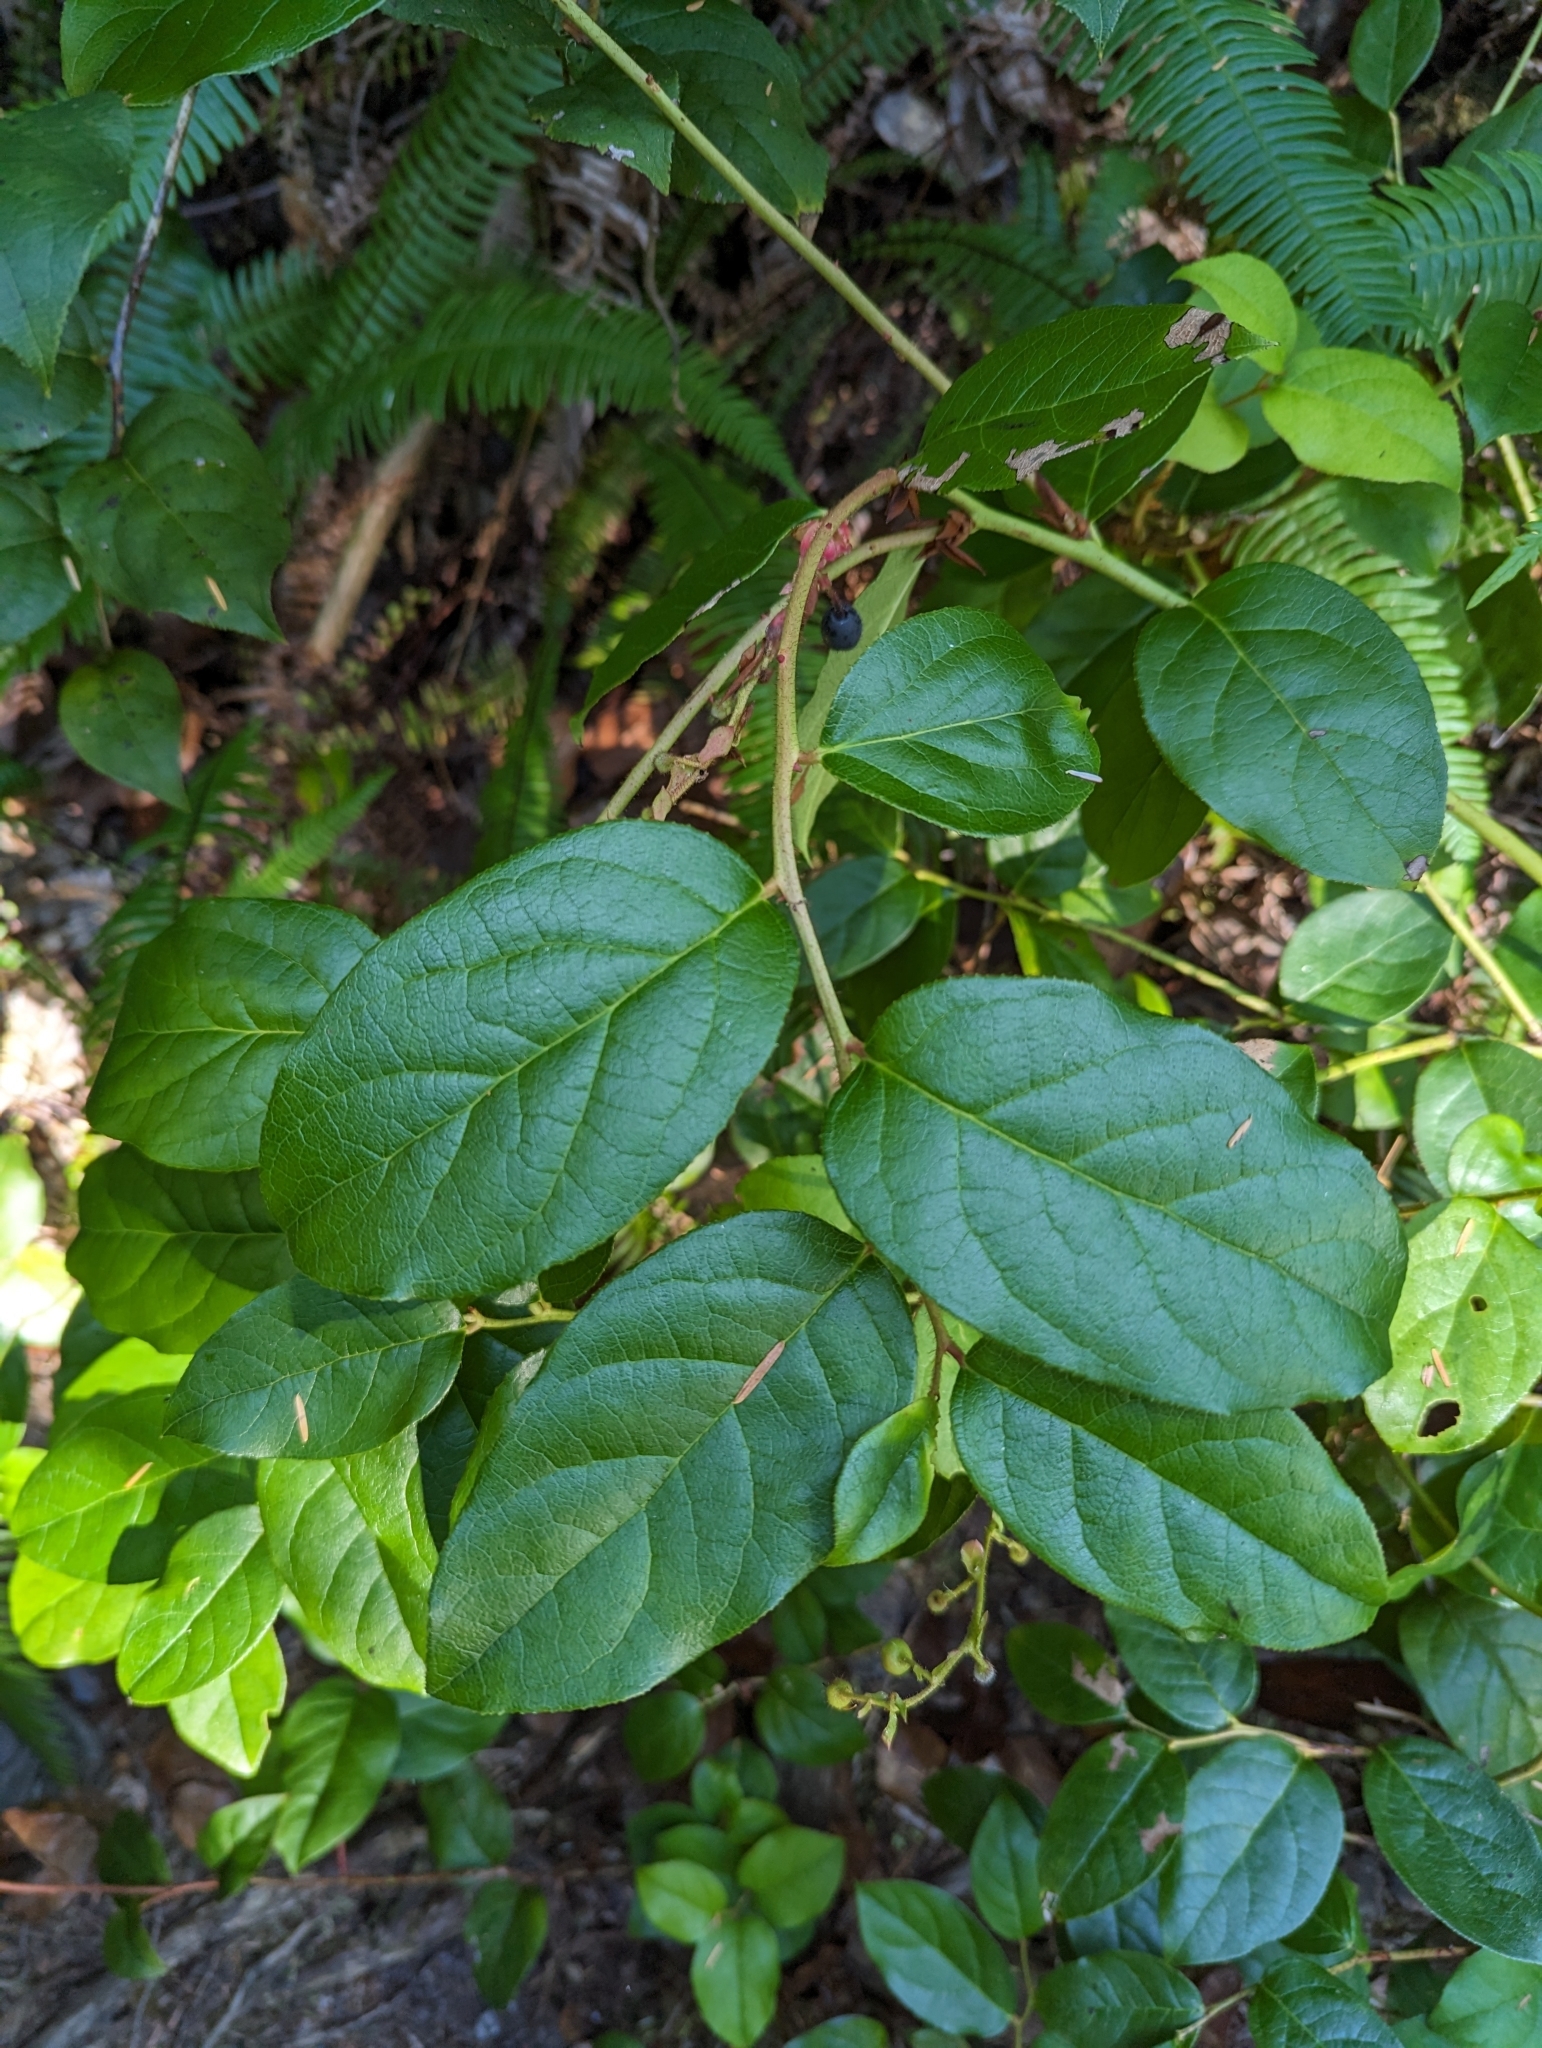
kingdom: Plantae
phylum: Tracheophyta
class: Magnoliopsida
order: Ericales
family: Ericaceae
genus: Gaultheria
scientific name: Gaultheria shallon
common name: Shallon
